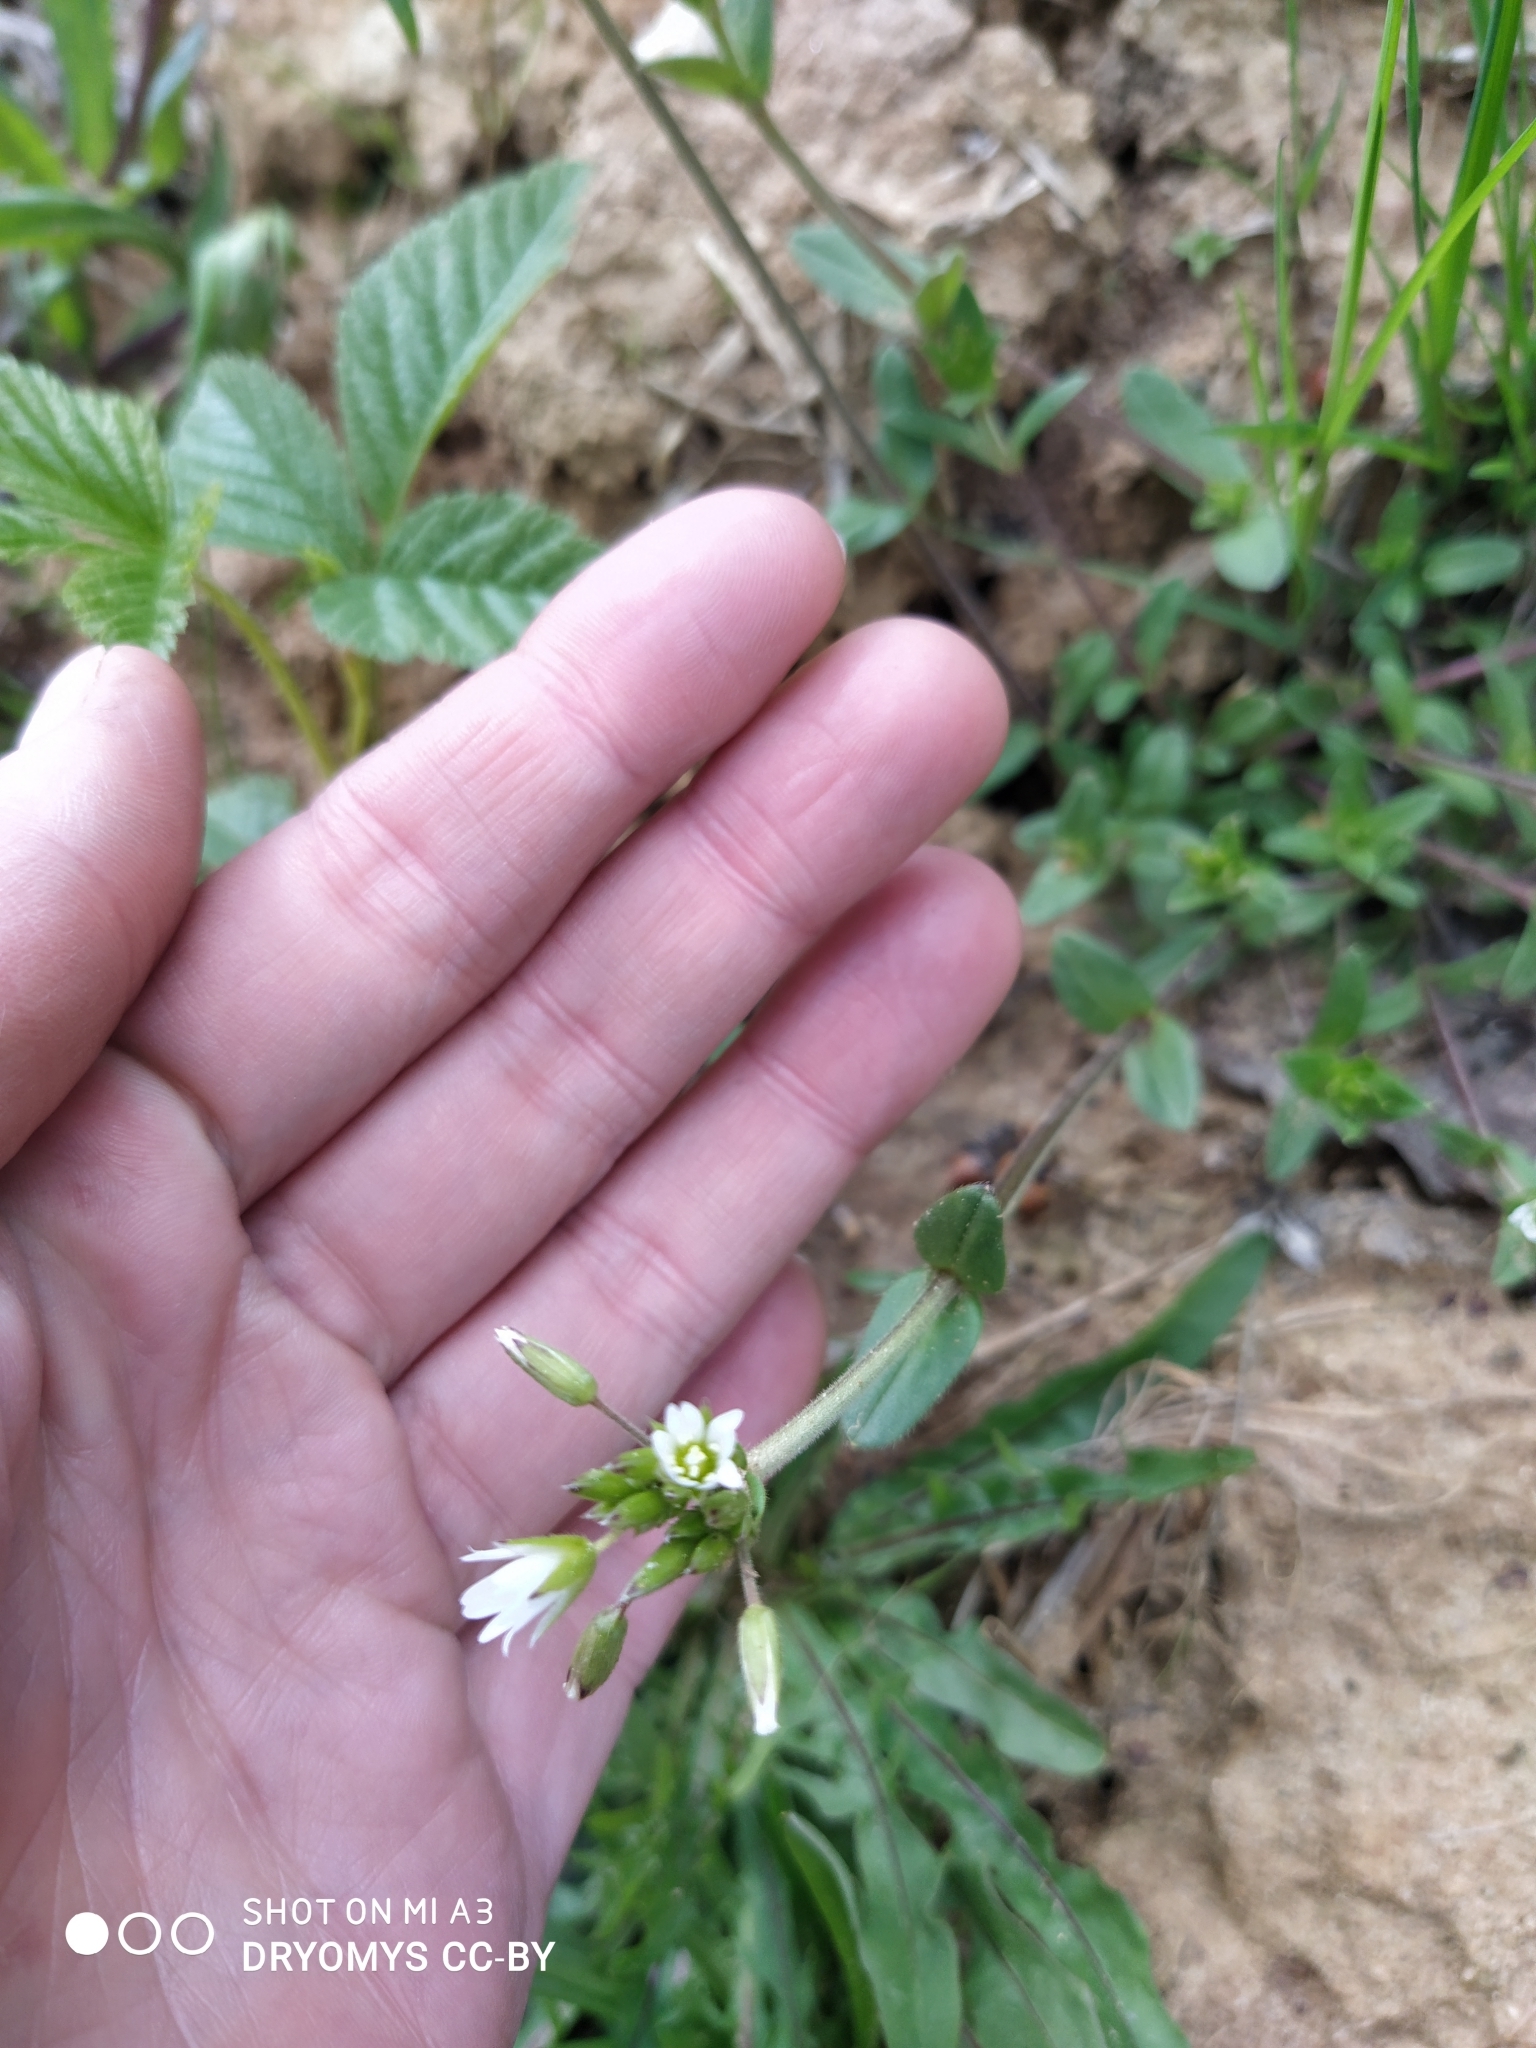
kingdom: Plantae
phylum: Tracheophyta
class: Magnoliopsida
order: Caryophyllales
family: Caryophyllaceae
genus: Cerastium
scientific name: Cerastium holosteoides
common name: Big chickweed
